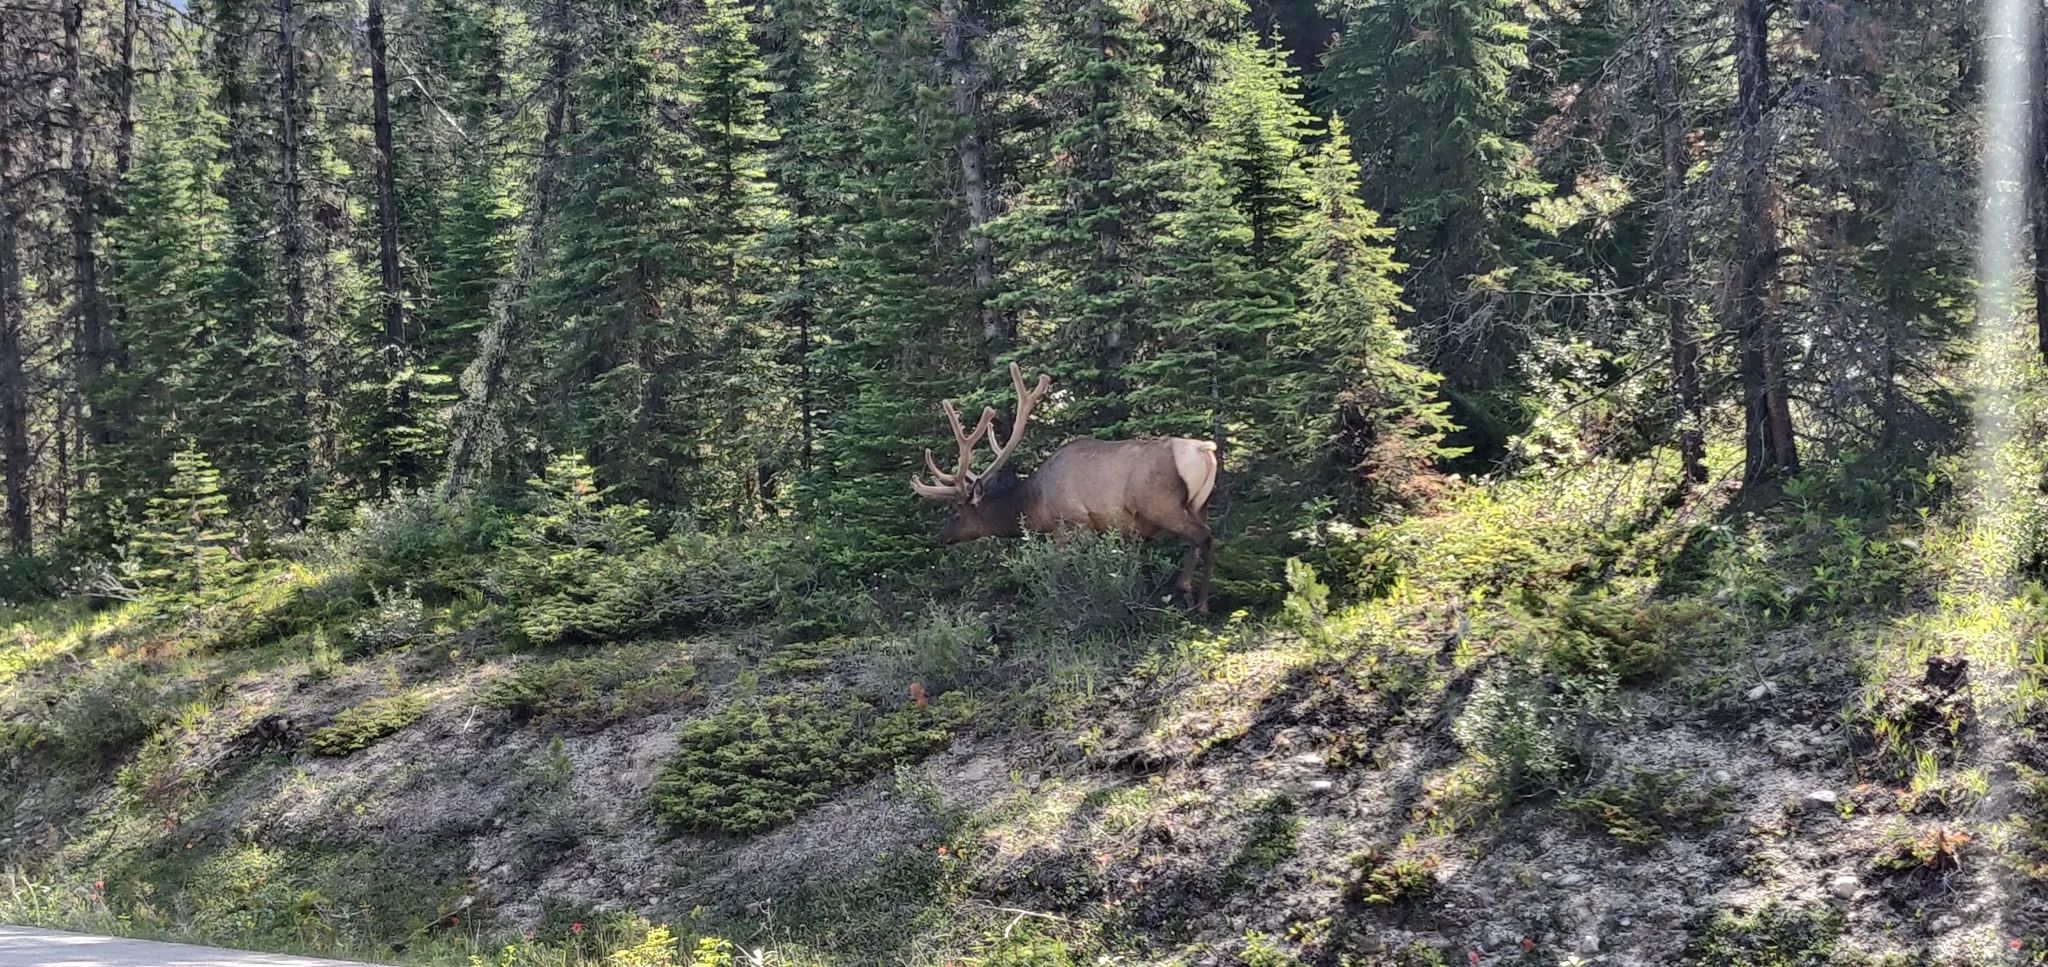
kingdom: Animalia
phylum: Chordata
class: Mammalia
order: Artiodactyla
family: Cervidae
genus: Cervus
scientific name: Cervus elaphus
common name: Red deer
